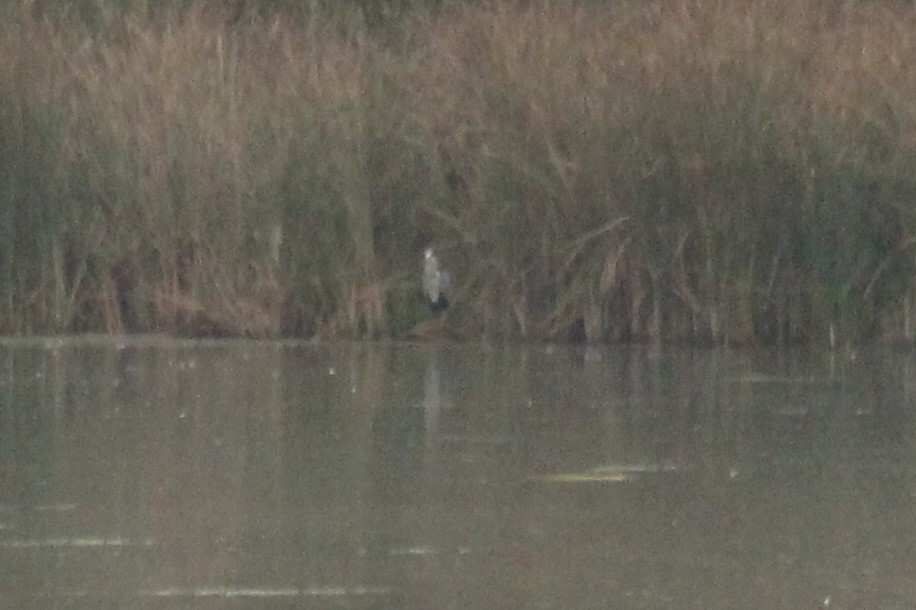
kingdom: Animalia
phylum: Chordata
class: Aves
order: Pelecaniformes
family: Ardeidae
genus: Ardea
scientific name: Ardea cinerea
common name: Grey heron
